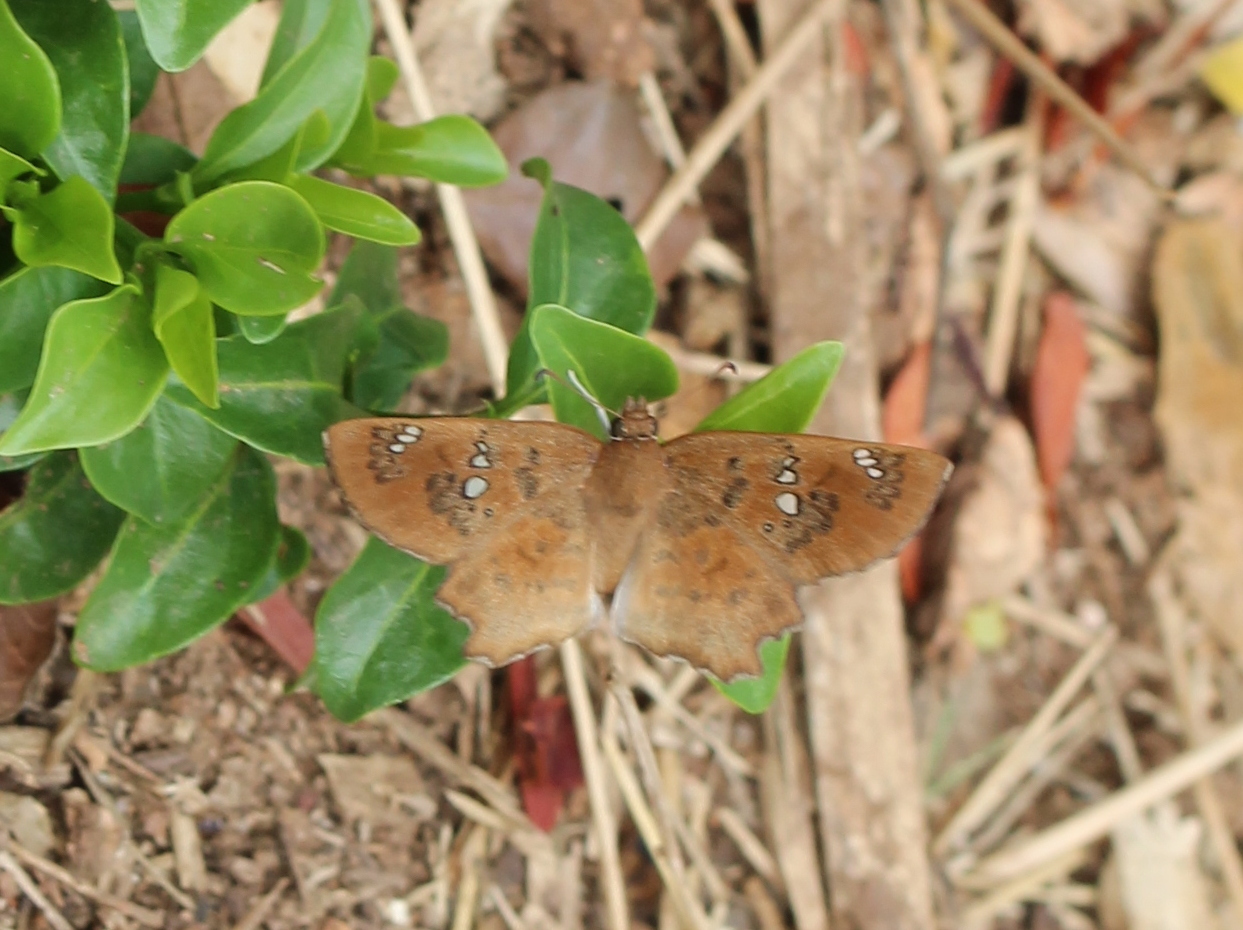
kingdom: Animalia
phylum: Arthropoda
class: Insecta
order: Lepidoptera
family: Hesperiidae
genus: Caprona
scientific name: Caprona ransonnettii
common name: Golden angle
